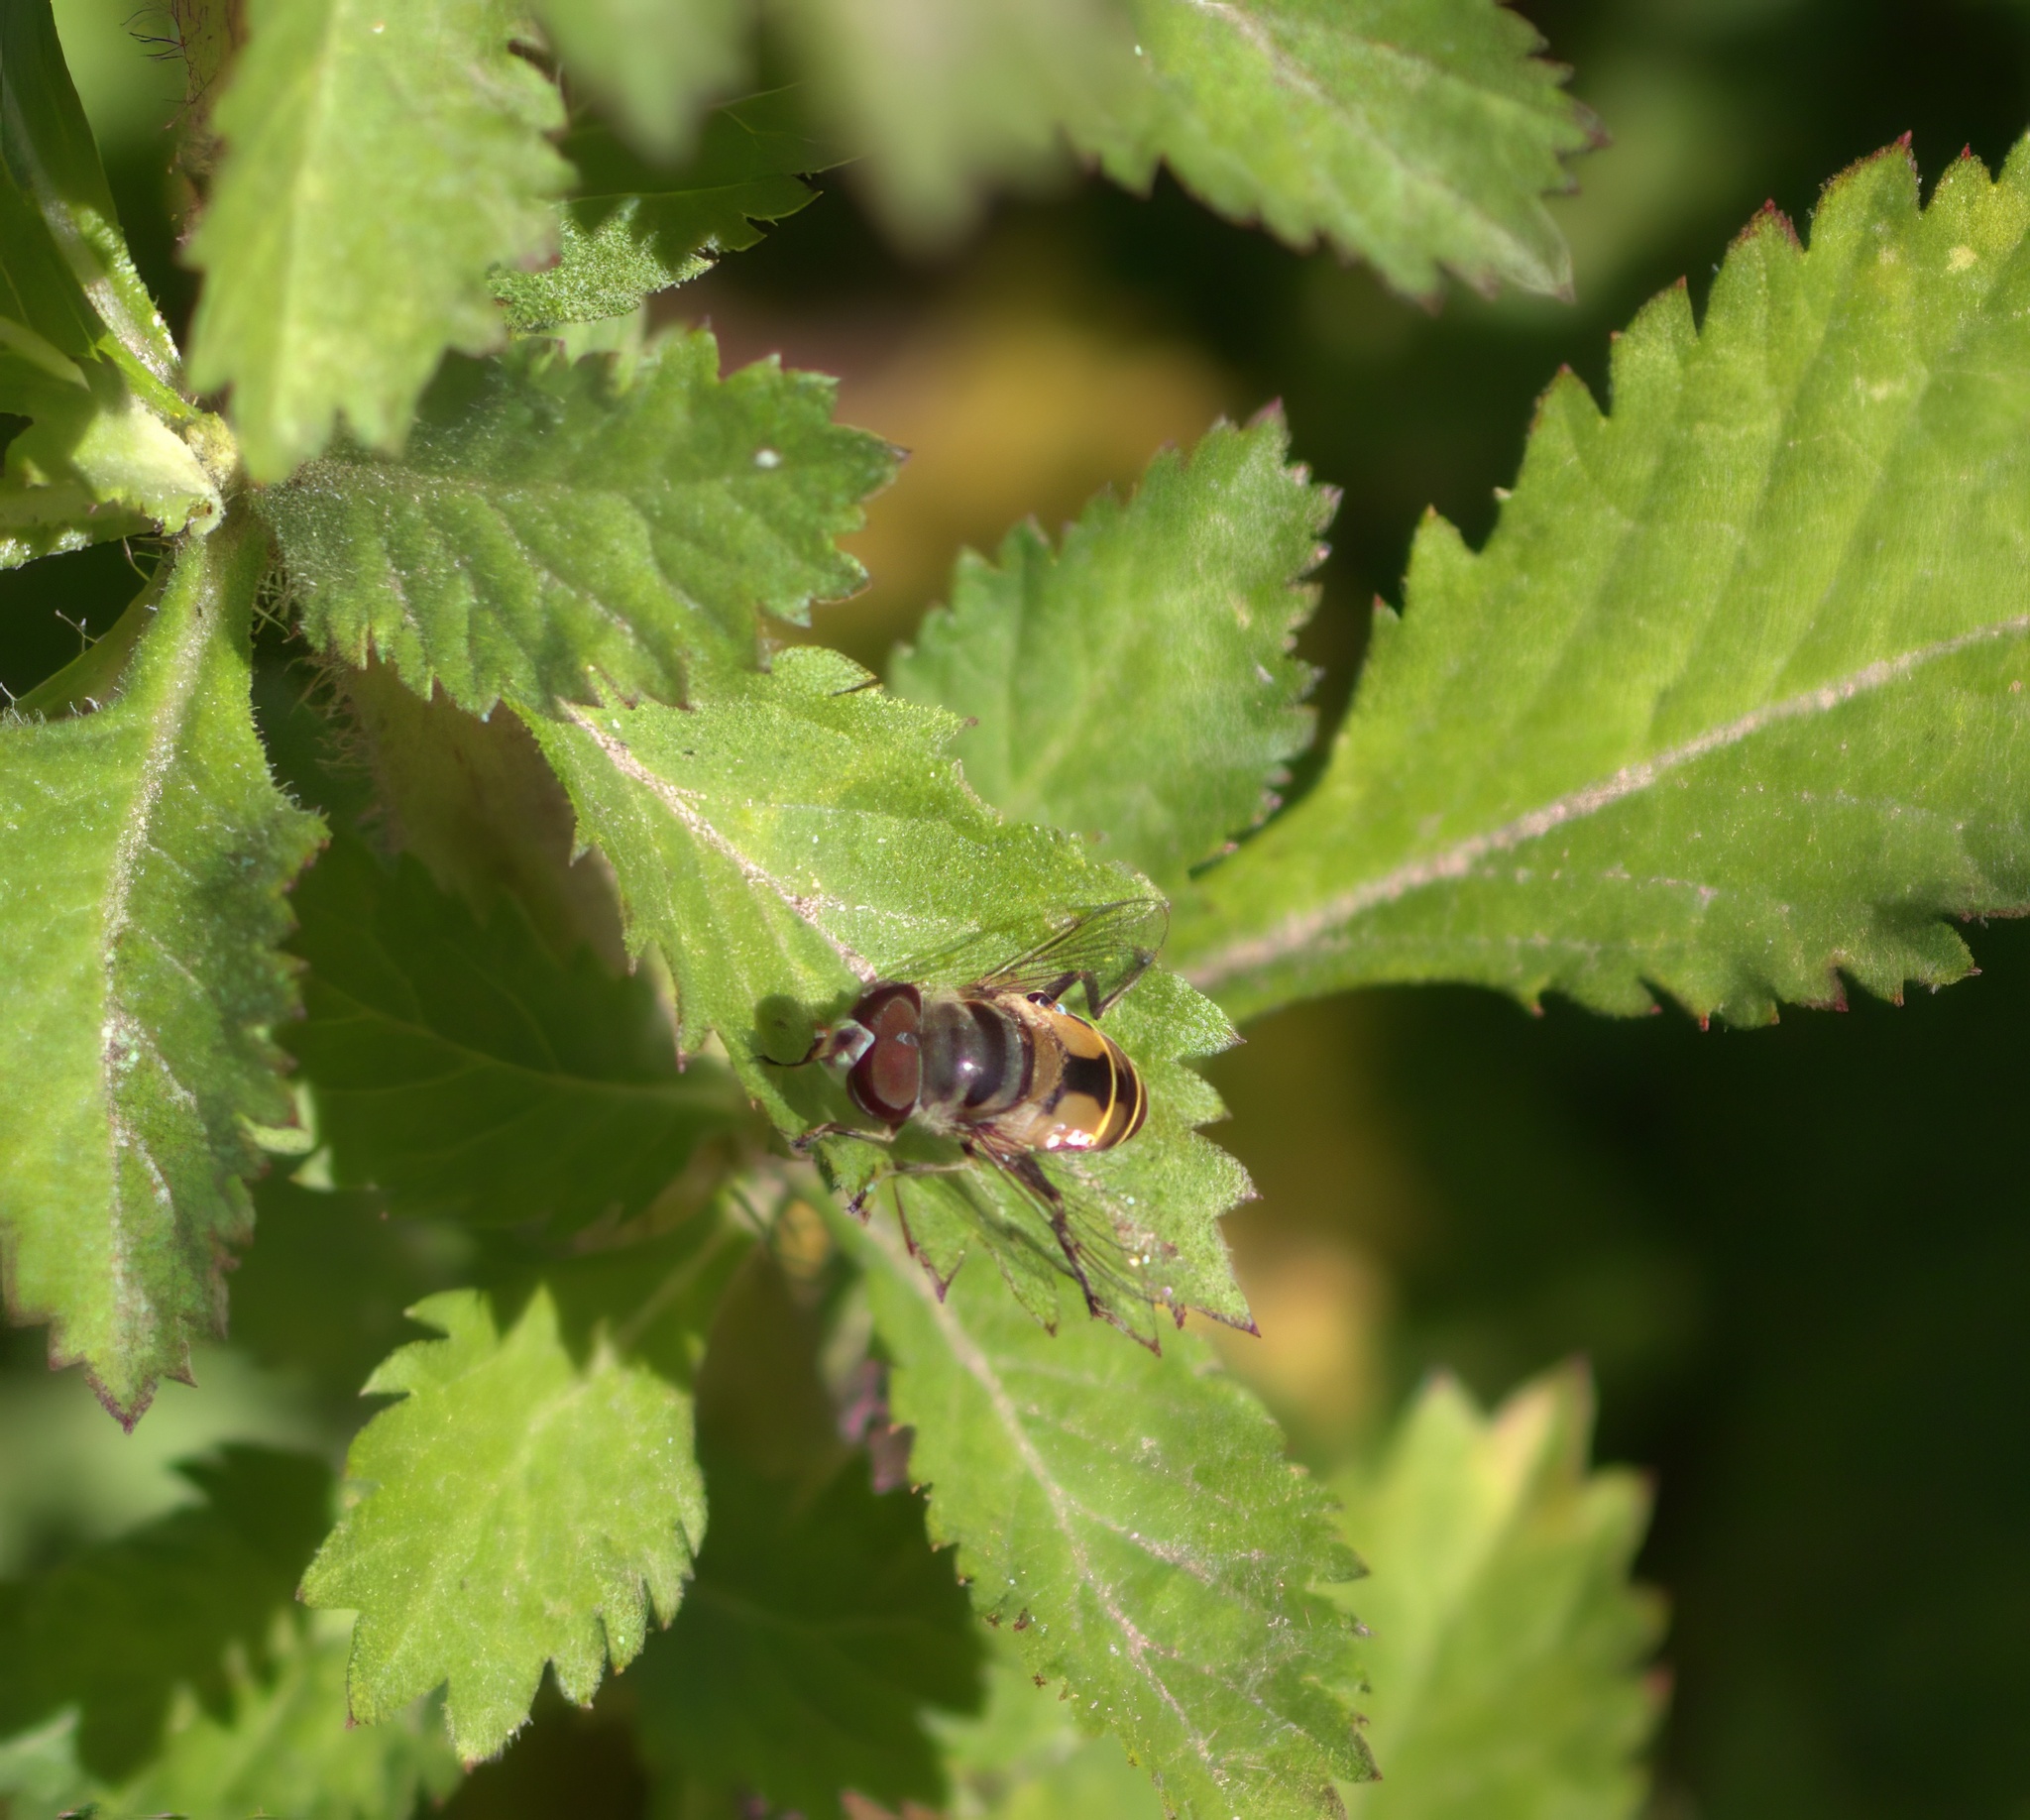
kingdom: Animalia
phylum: Arthropoda
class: Insecta
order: Diptera
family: Syrphidae
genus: Palpada
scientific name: Palpada alhambra
